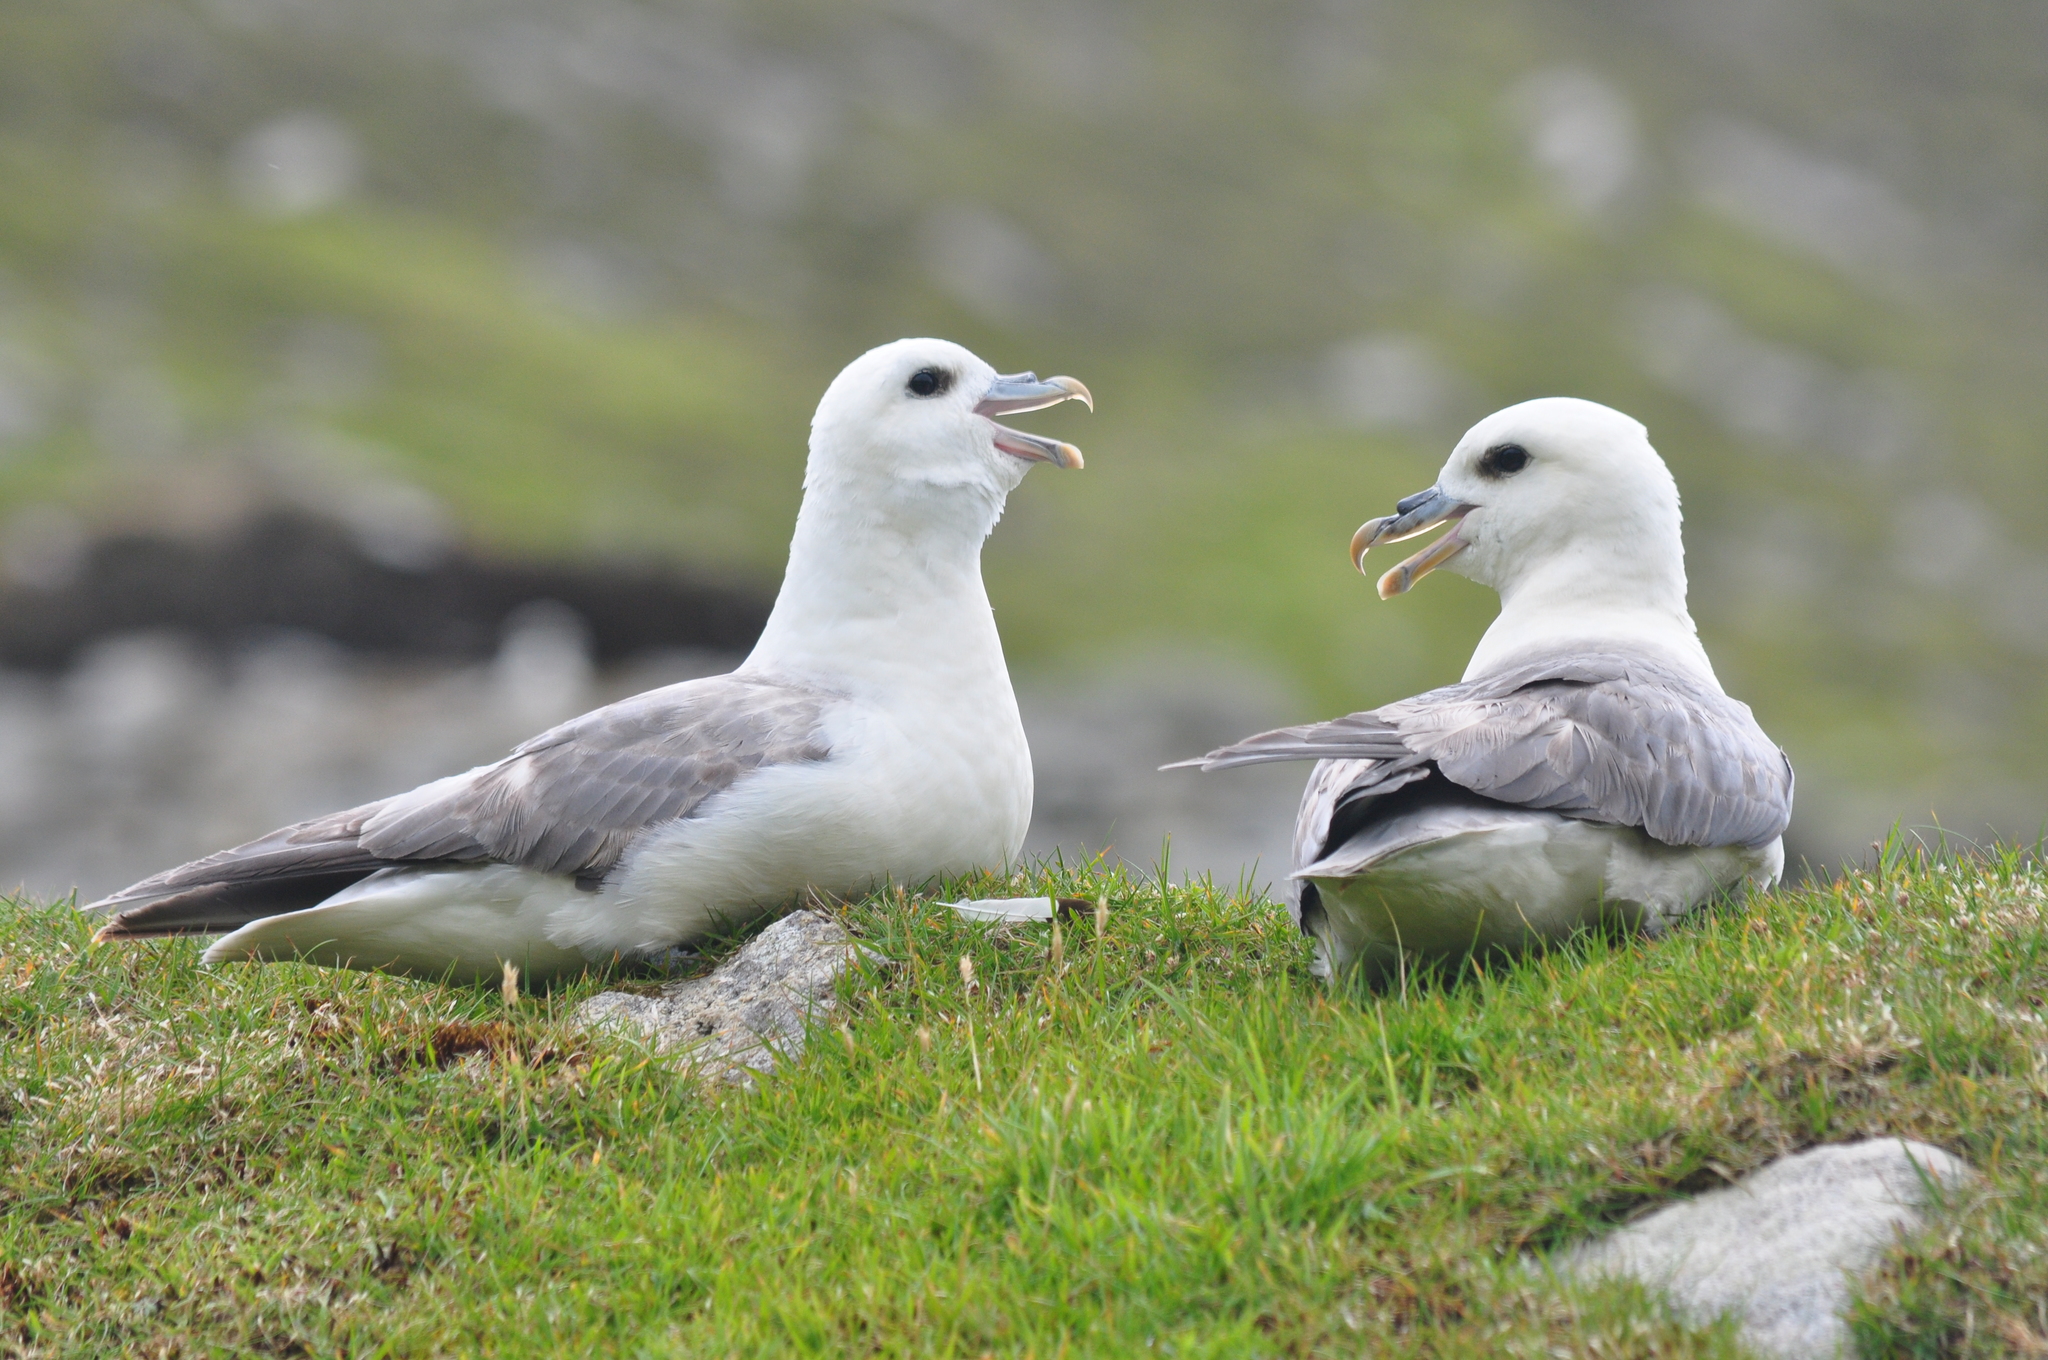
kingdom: Animalia
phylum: Chordata
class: Aves
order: Procellariiformes
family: Procellariidae
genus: Fulmarus
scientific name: Fulmarus glacialis
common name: Northern fulmar
